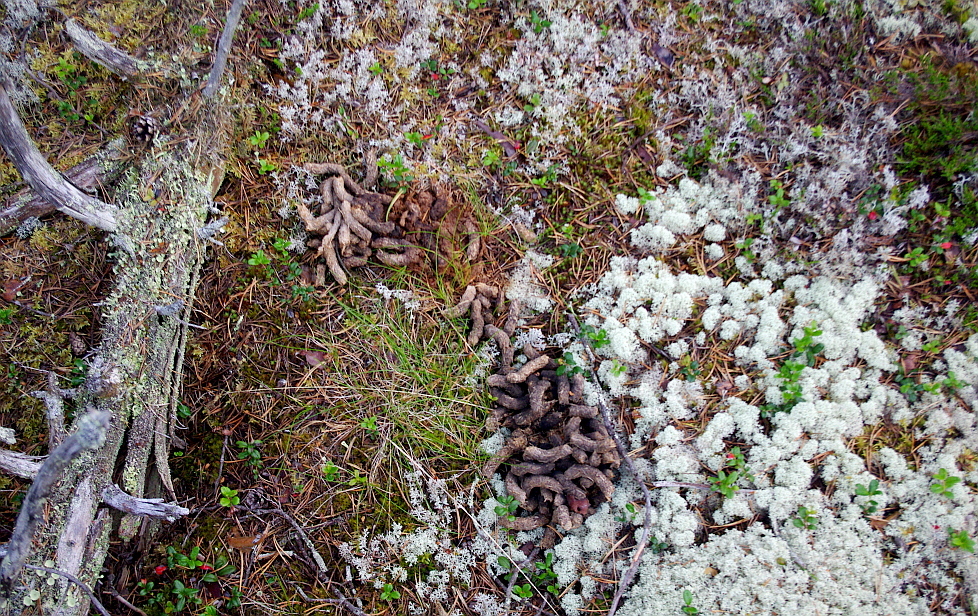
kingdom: Animalia
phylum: Chordata
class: Aves
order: Galliformes
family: Phasianidae
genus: Tetrao
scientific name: Tetrao urogallus
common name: Western capercaillie
